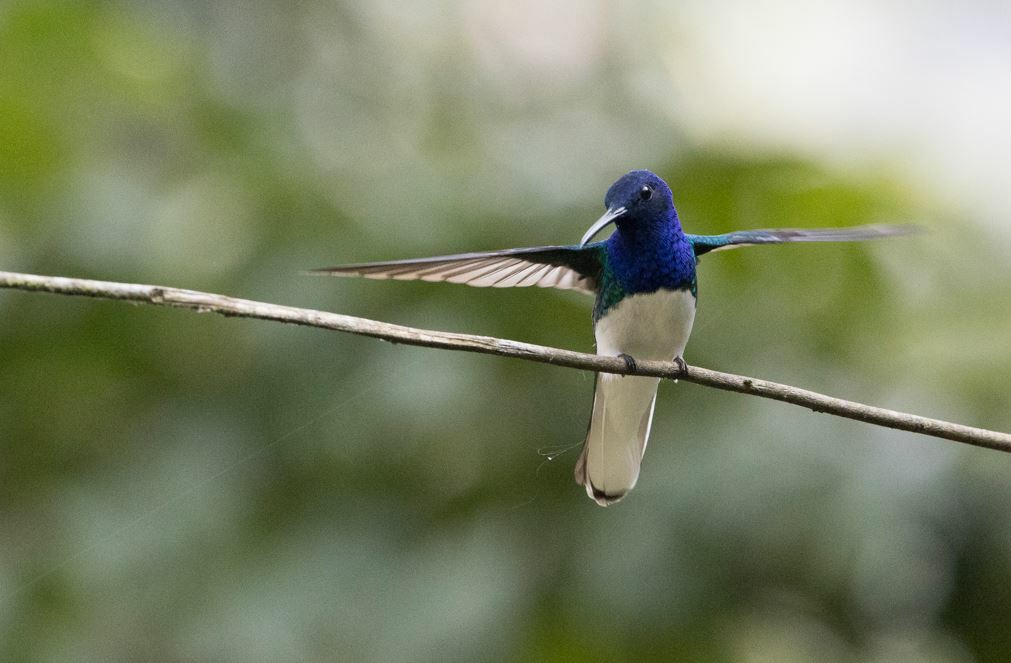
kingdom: Animalia
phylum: Chordata
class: Aves
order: Apodiformes
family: Trochilidae
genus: Florisuga
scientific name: Florisuga mellivora
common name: White-necked jacobin
